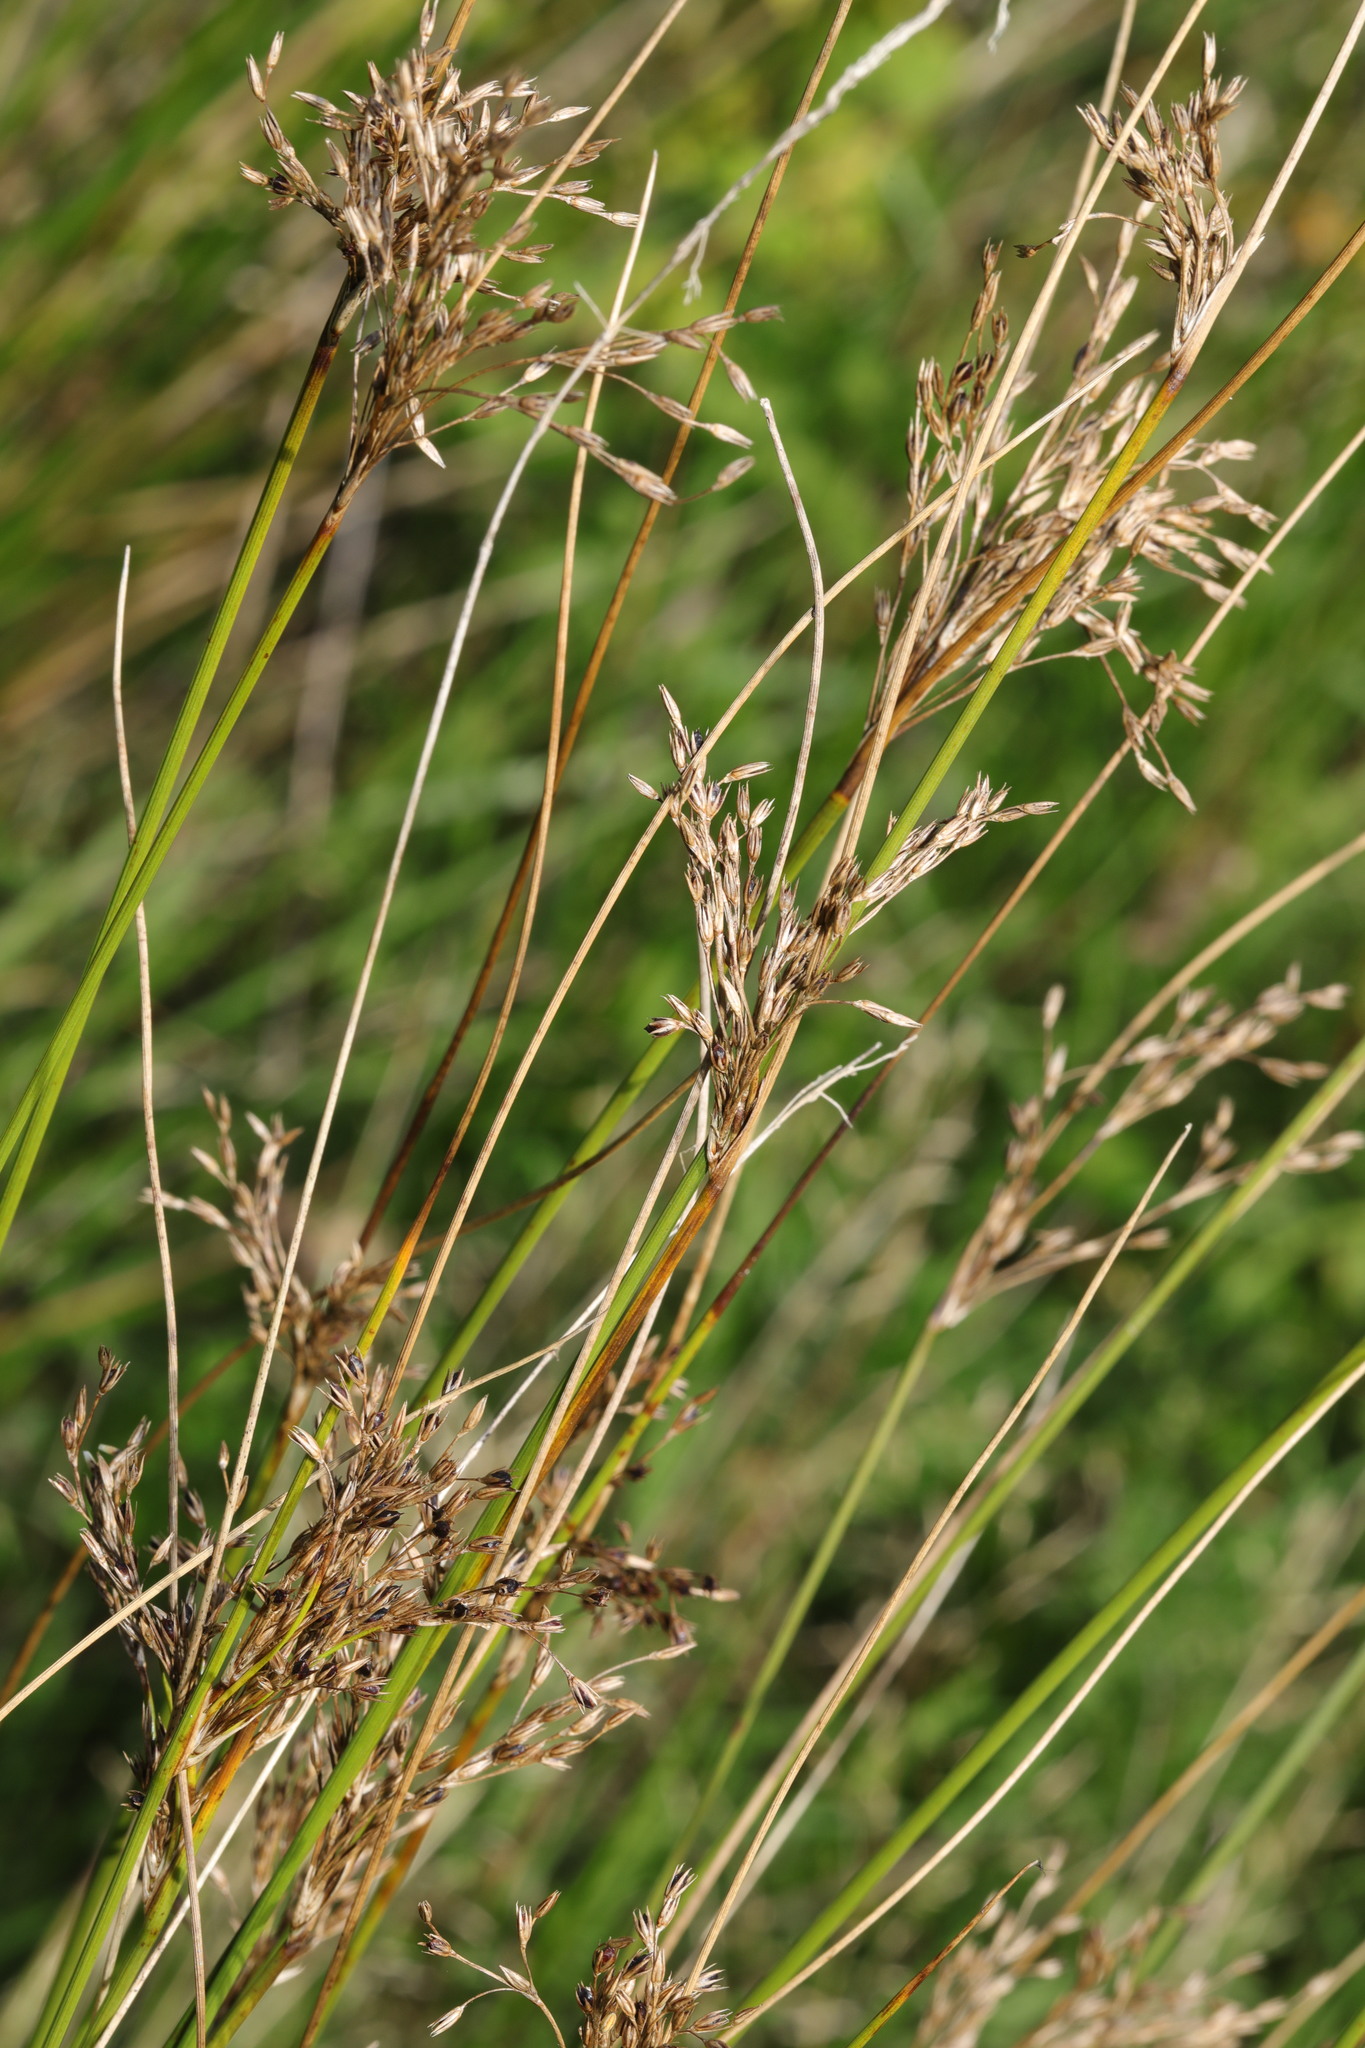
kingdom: Plantae
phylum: Tracheophyta
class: Liliopsida
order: Poales
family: Juncaceae
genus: Juncus
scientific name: Juncus inflexus
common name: Hard rush
